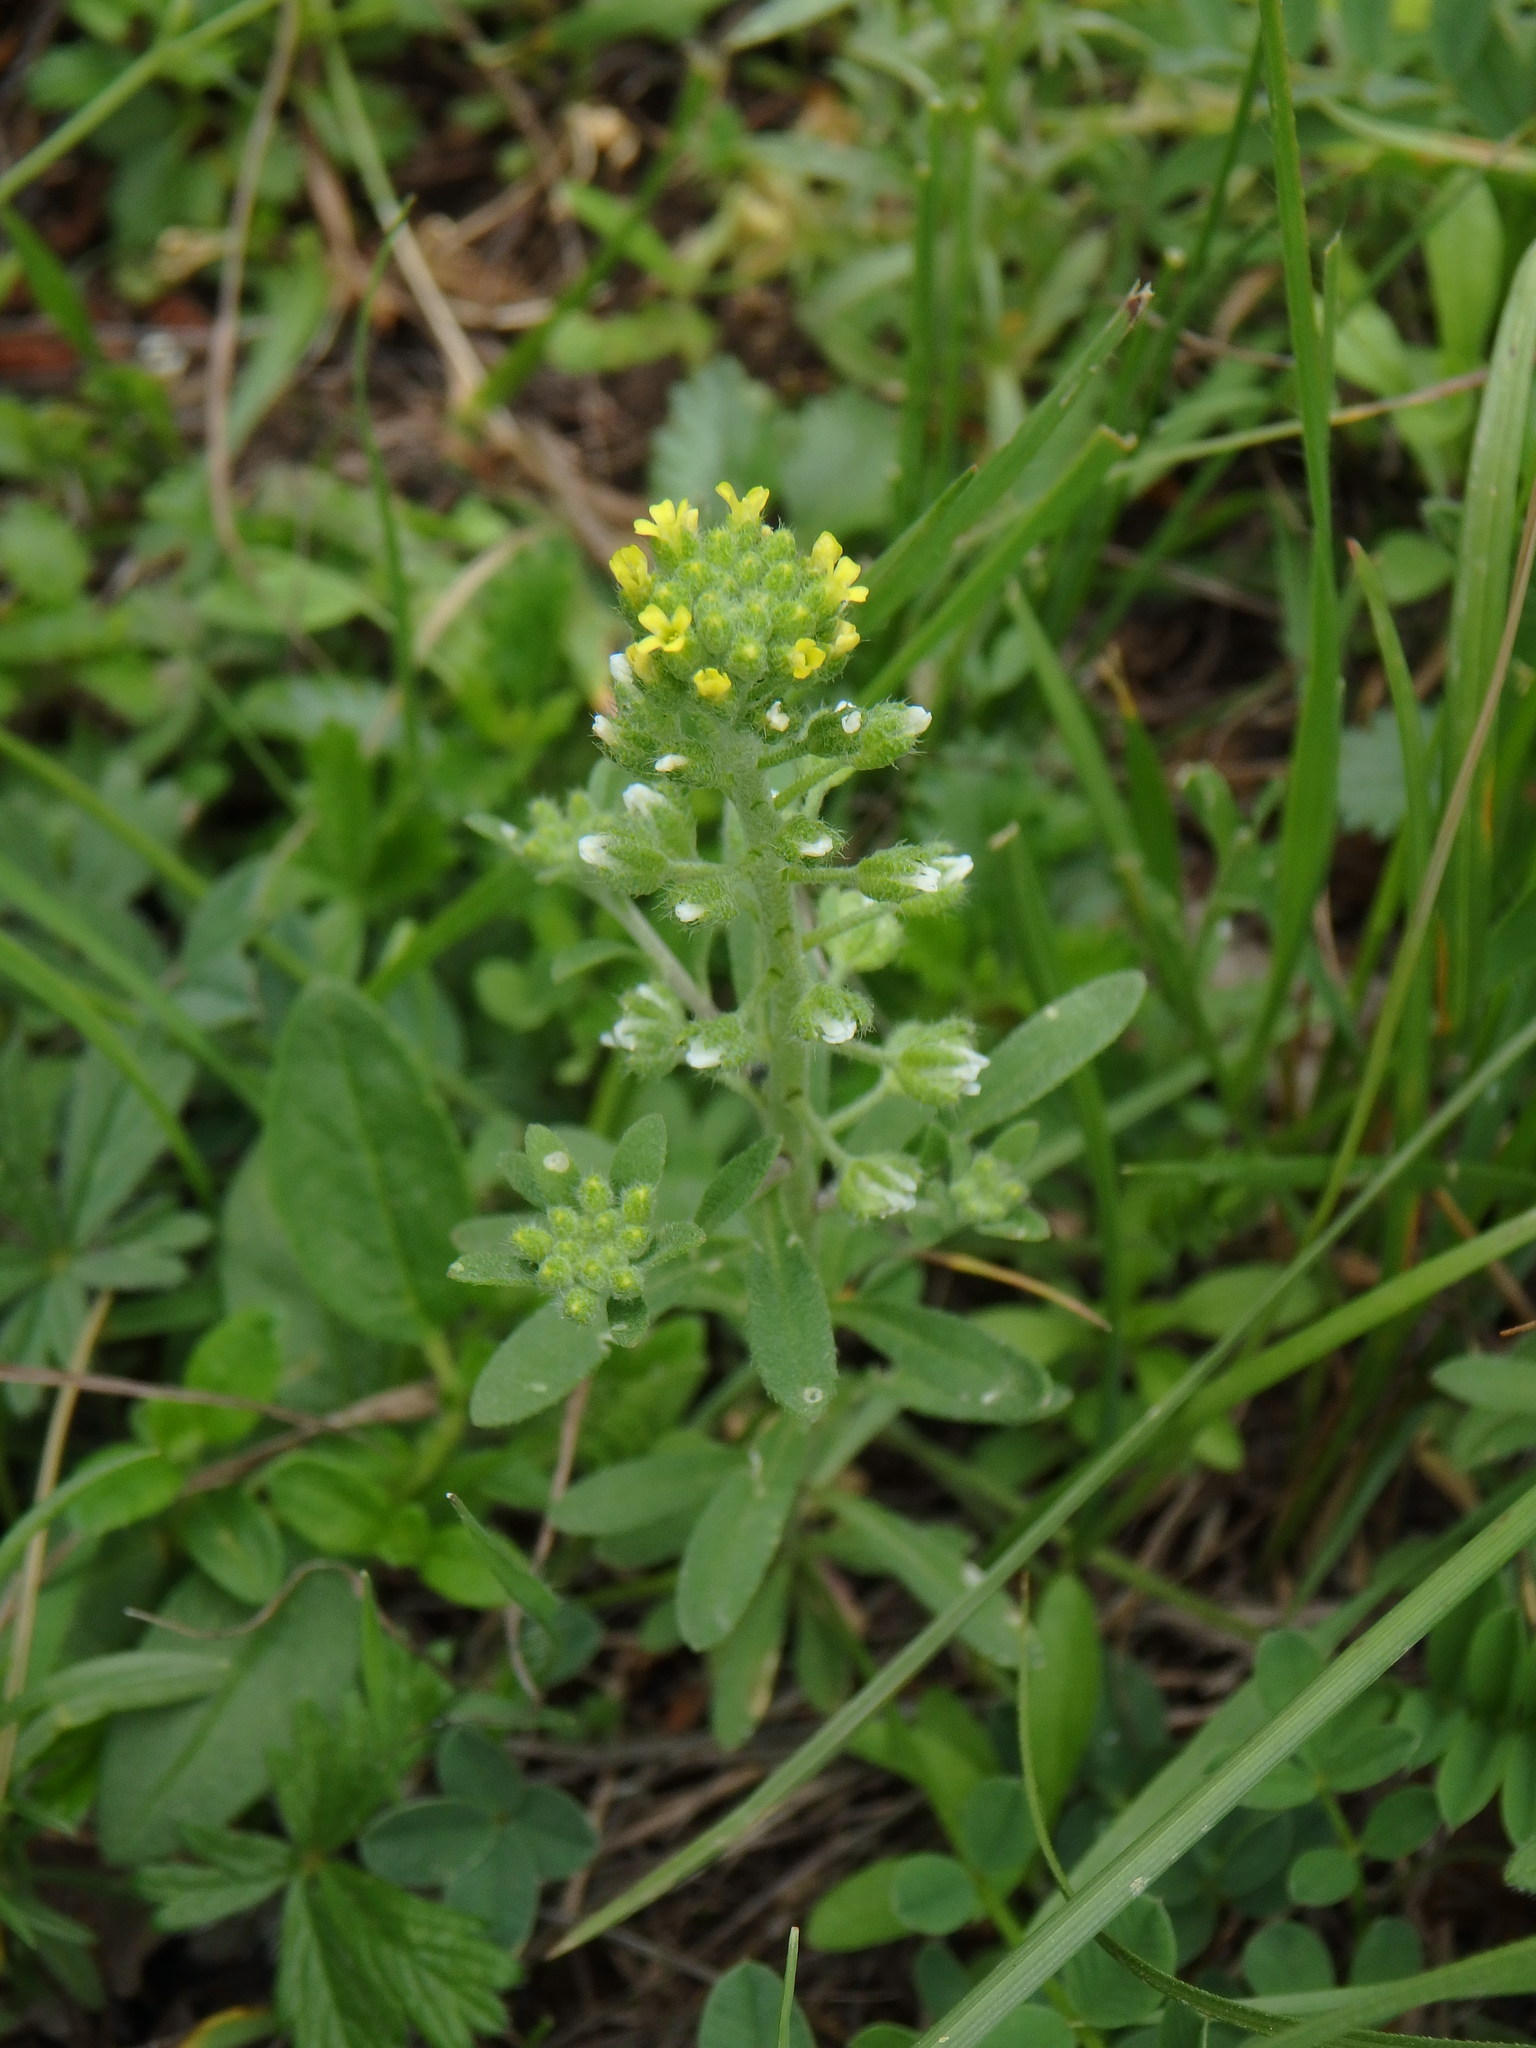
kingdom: Plantae
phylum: Tracheophyta
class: Magnoliopsida
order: Brassicales
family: Brassicaceae
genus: Alyssum
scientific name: Alyssum alyssoides
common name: Small alison
